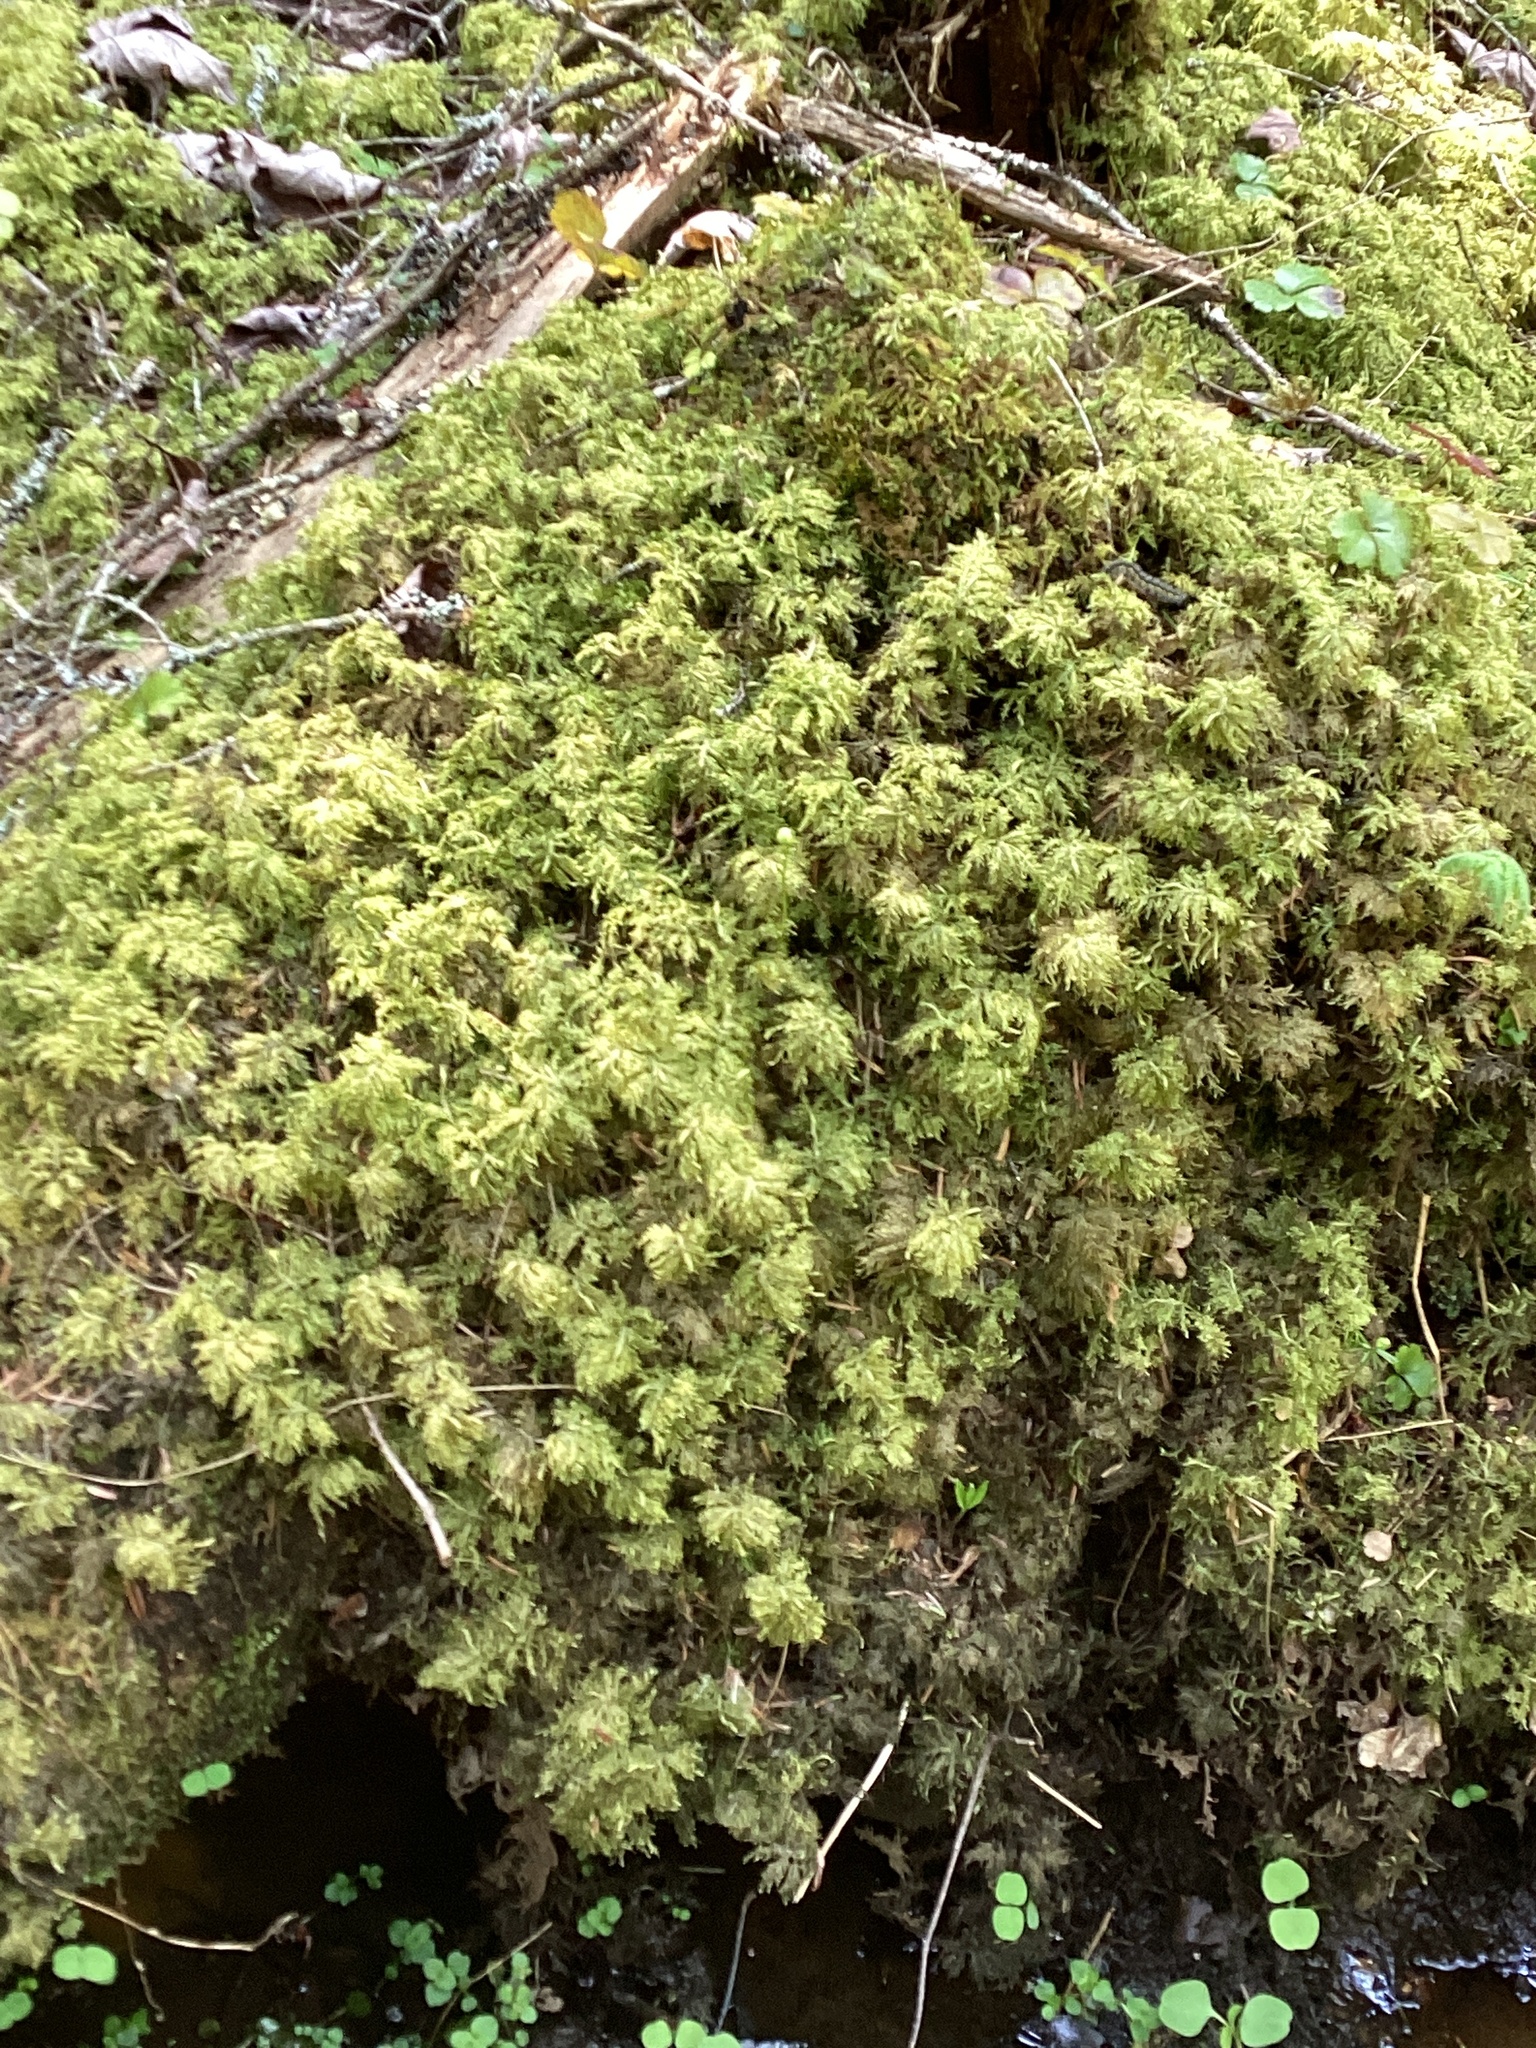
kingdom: Plantae
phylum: Bryophyta
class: Bryopsida
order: Hypnales
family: Hylocomiaceae
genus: Hylocomium
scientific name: Hylocomium splendens
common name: Stairstep moss
